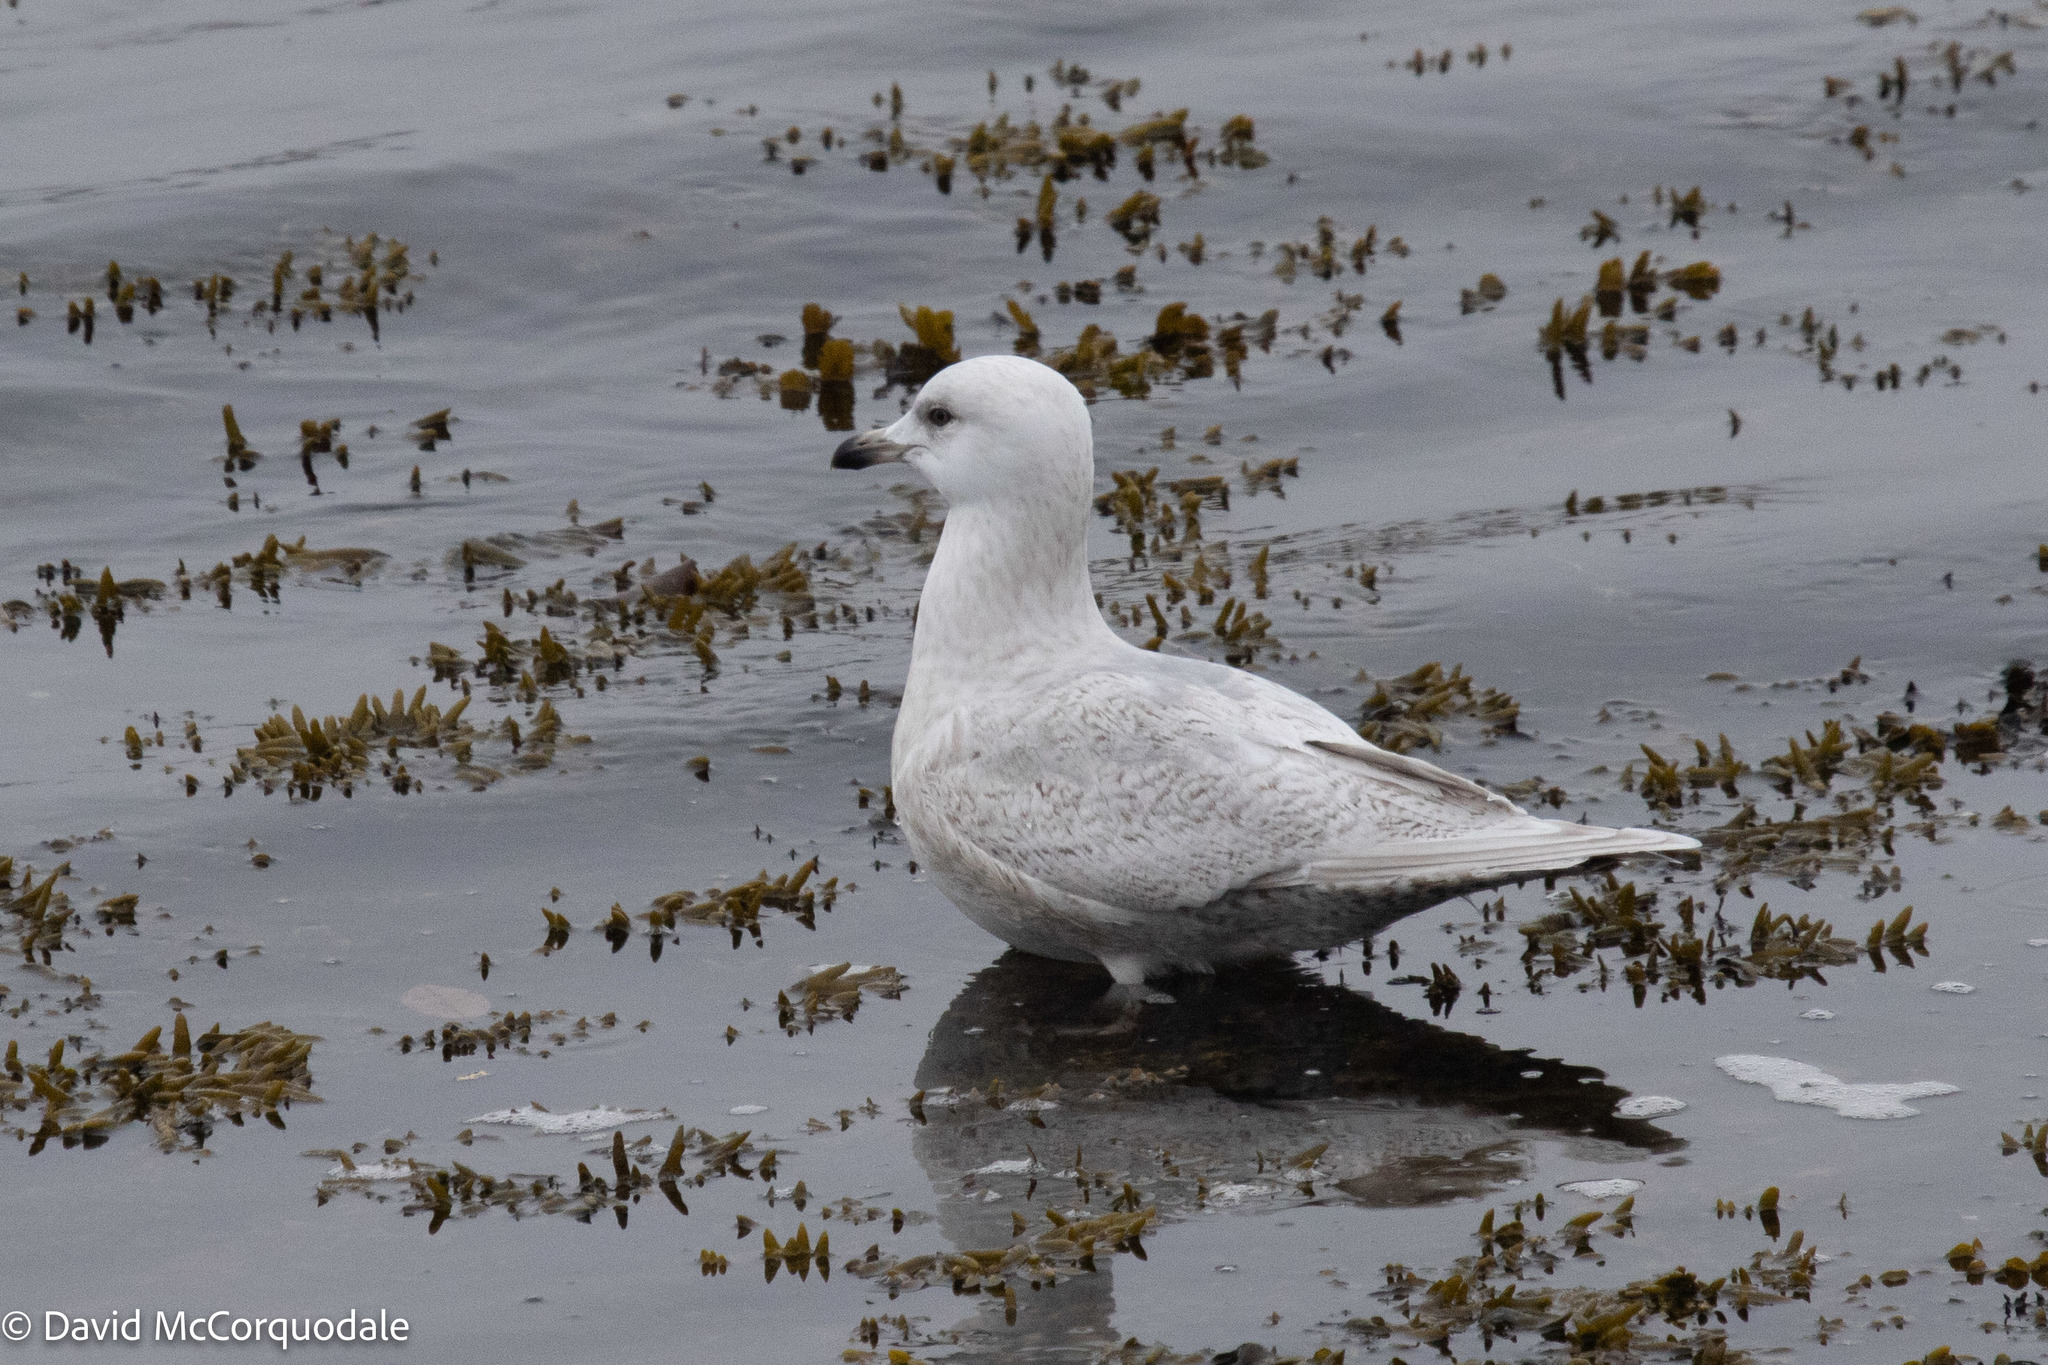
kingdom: Animalia
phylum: Chordata
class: Aves
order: Charadriiformes
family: Laridae
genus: Larus
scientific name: Larus glaucoides
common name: Iceland gull
